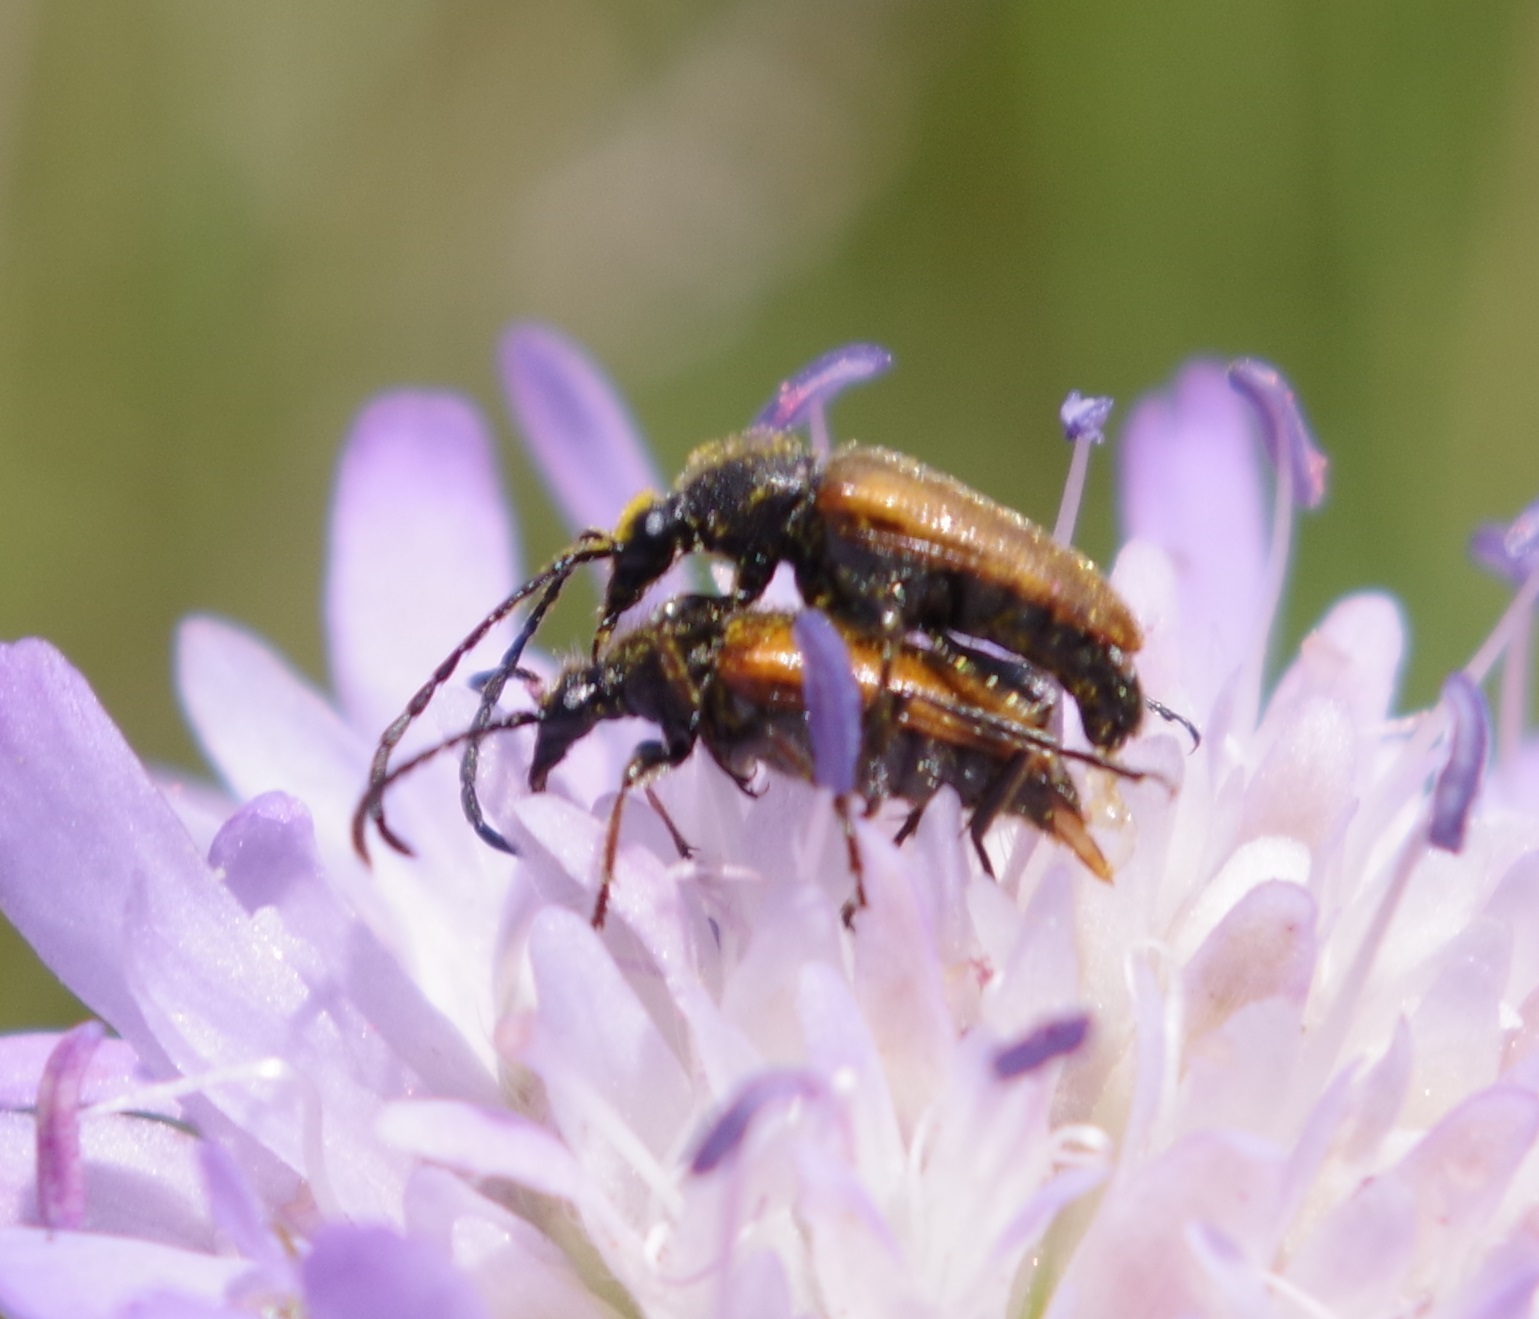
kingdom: Animalia
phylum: Arthropoda
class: Insecta
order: Coleoptera
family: Cerambycidae
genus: Pseudovadonia
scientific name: Pseudovadonia livida
